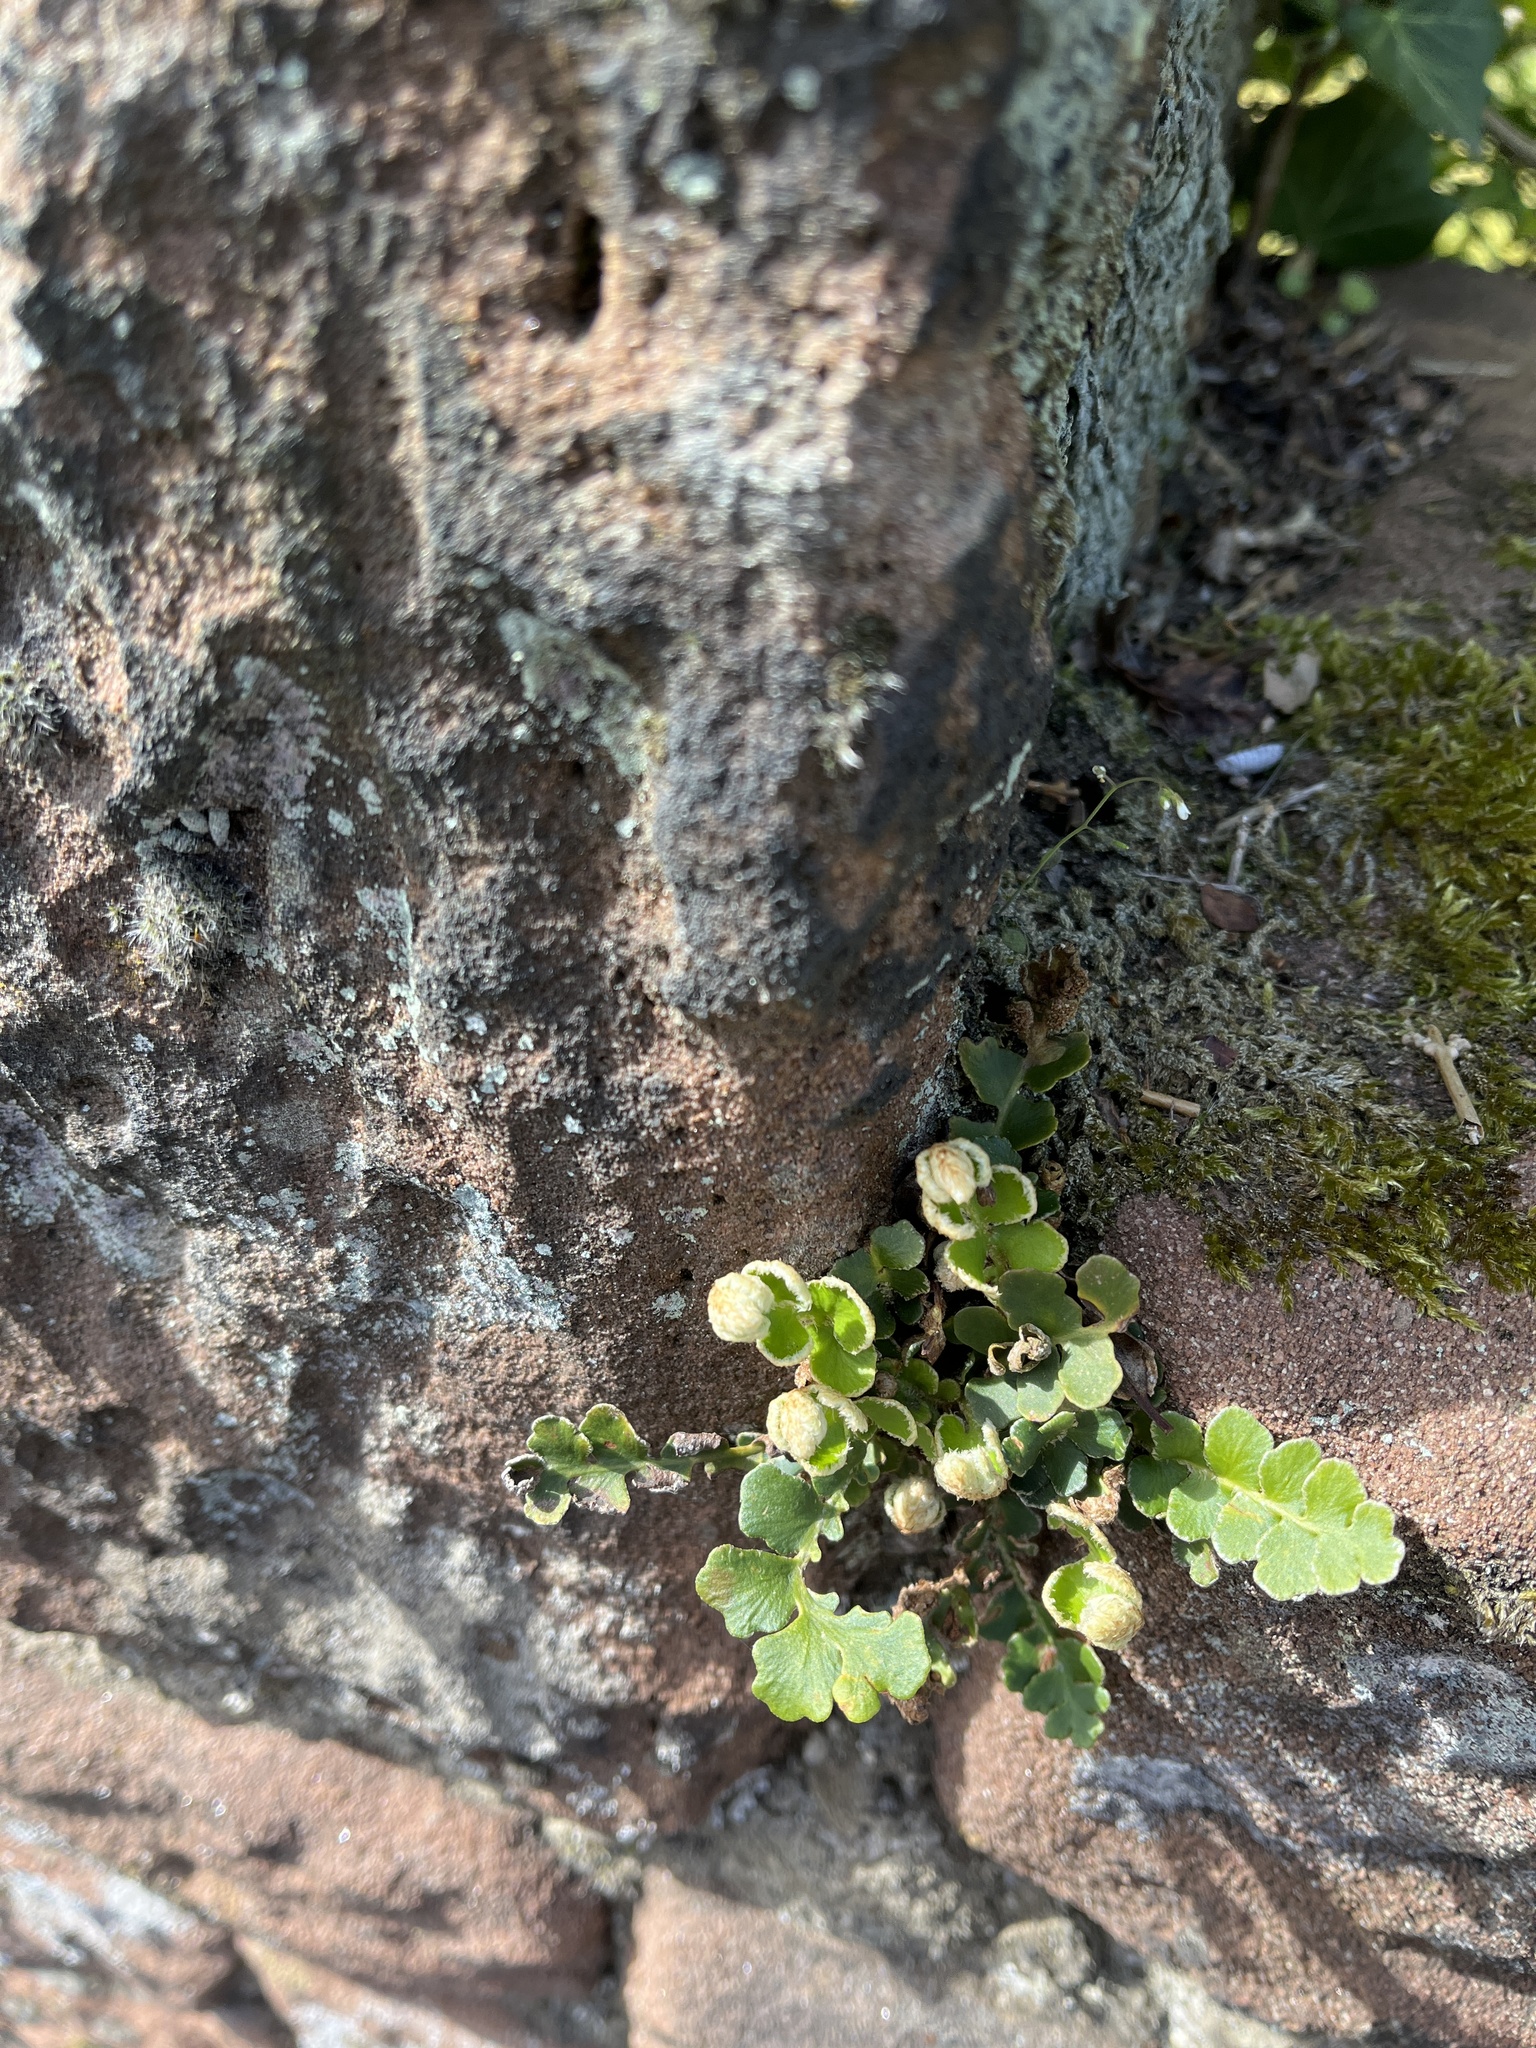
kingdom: Plantae
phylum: Tracheophyta
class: Polypodiopsida
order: Polypodiales
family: Aspleniaceae
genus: Asplenium
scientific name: Asplenium ceterach
